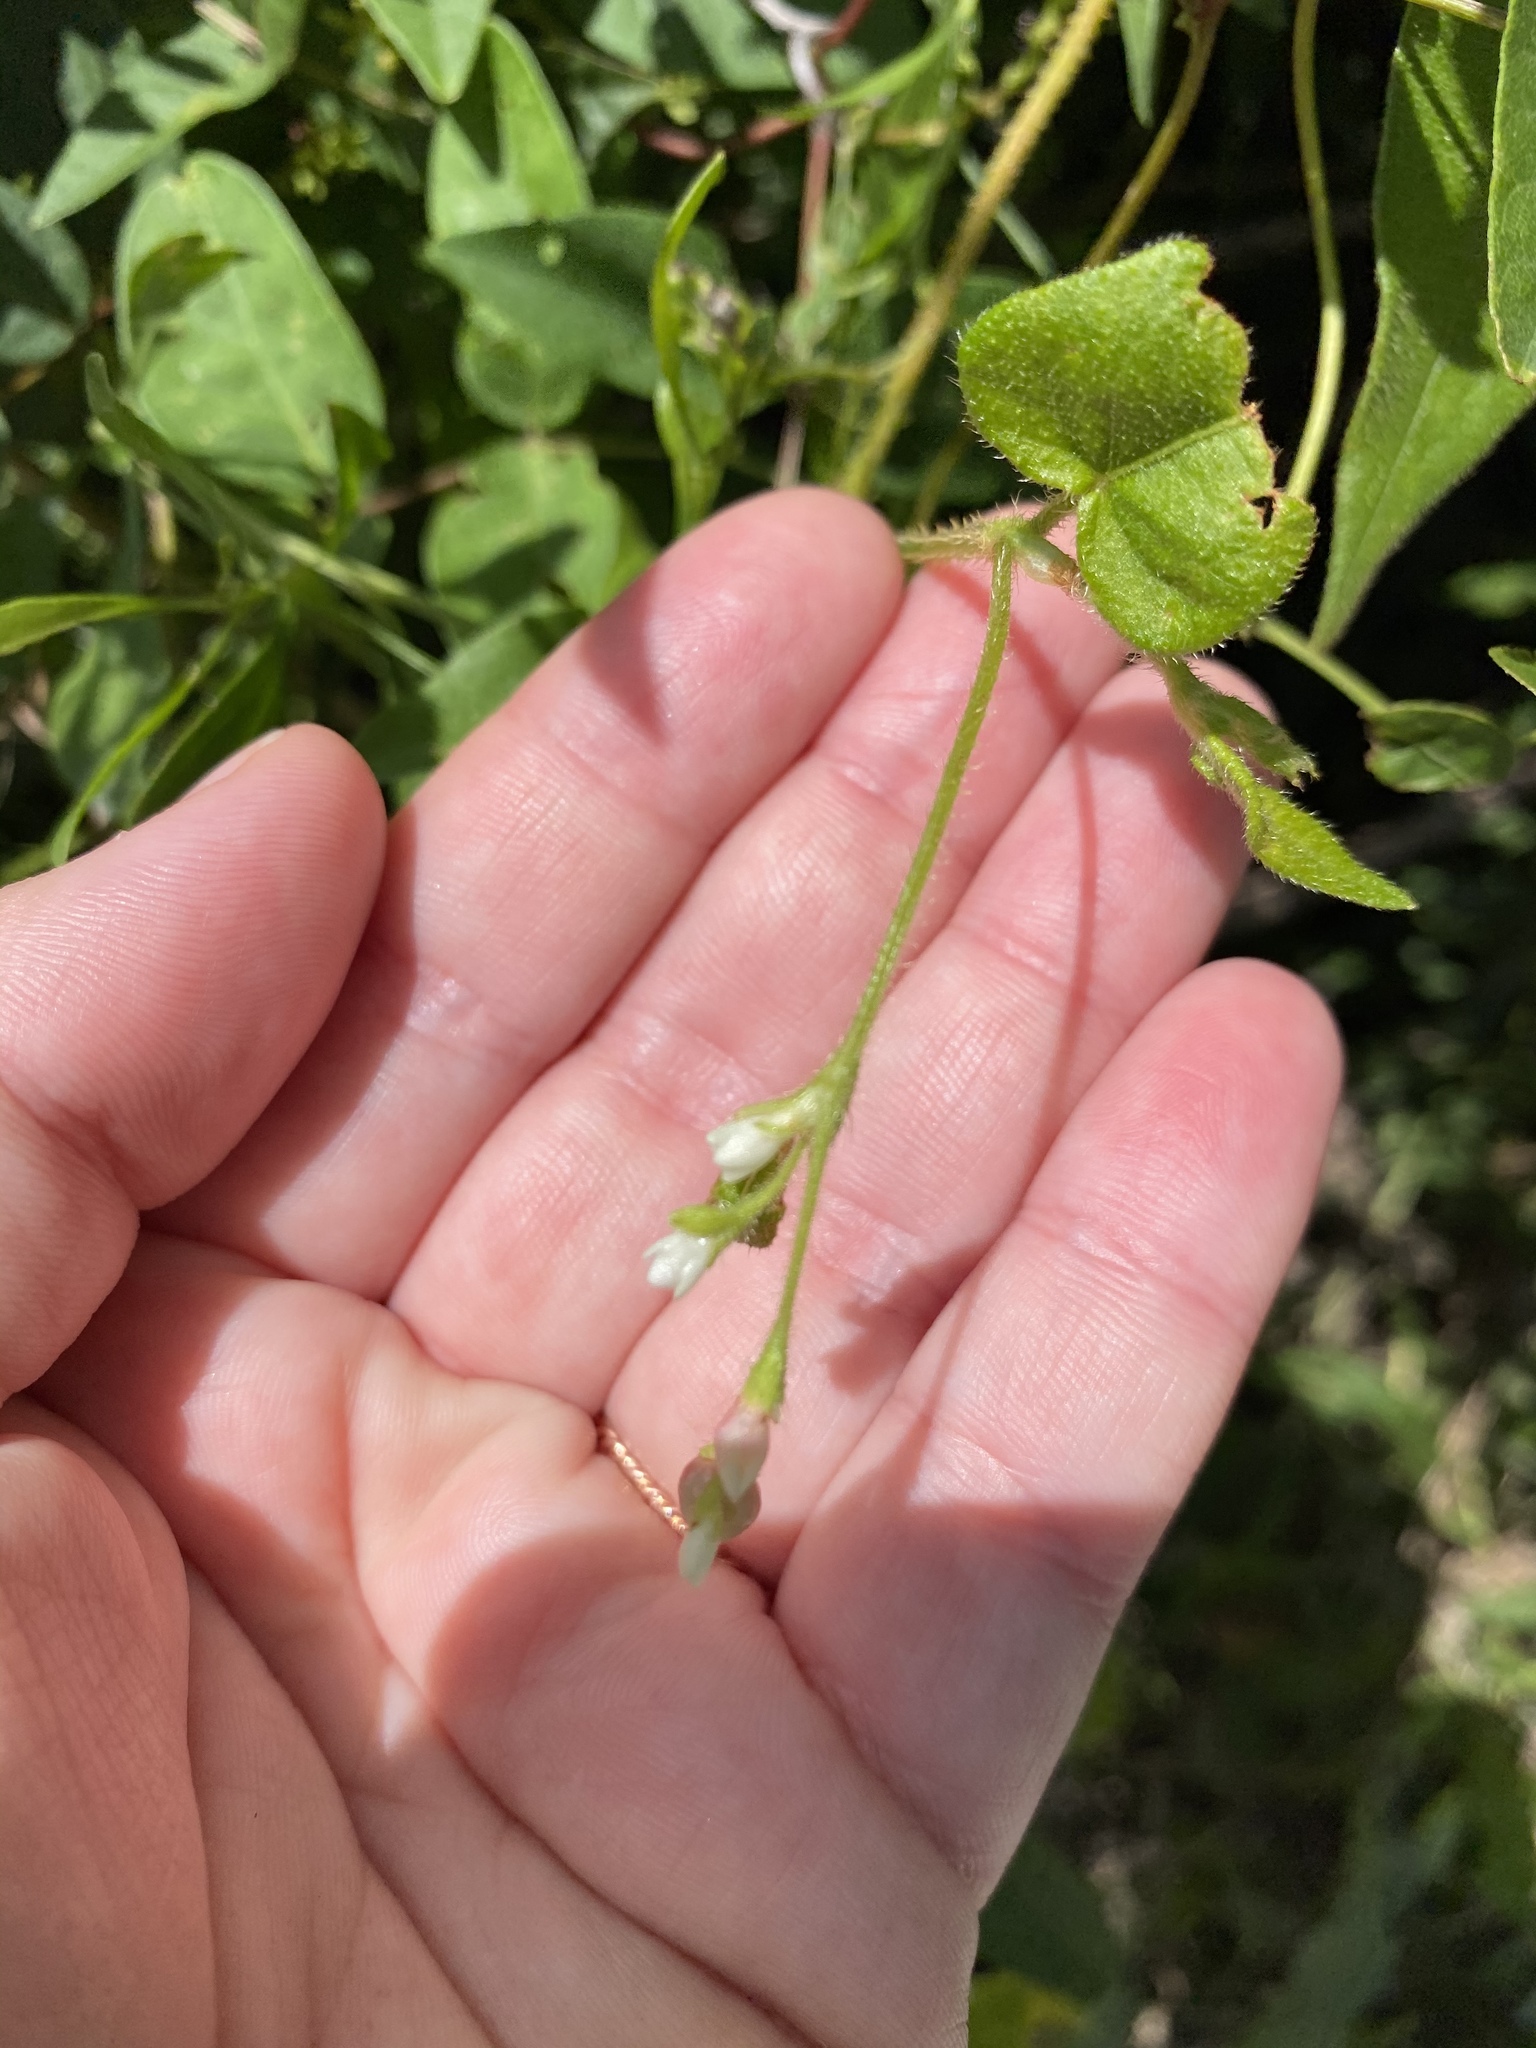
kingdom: Plantae
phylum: Tracheophyta
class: Magnoliopsida
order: Caryophyllales
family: Polygonaceae
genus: Persicaria
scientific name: Persicaria arifolia
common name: Halberd-leaved tear-thumb
